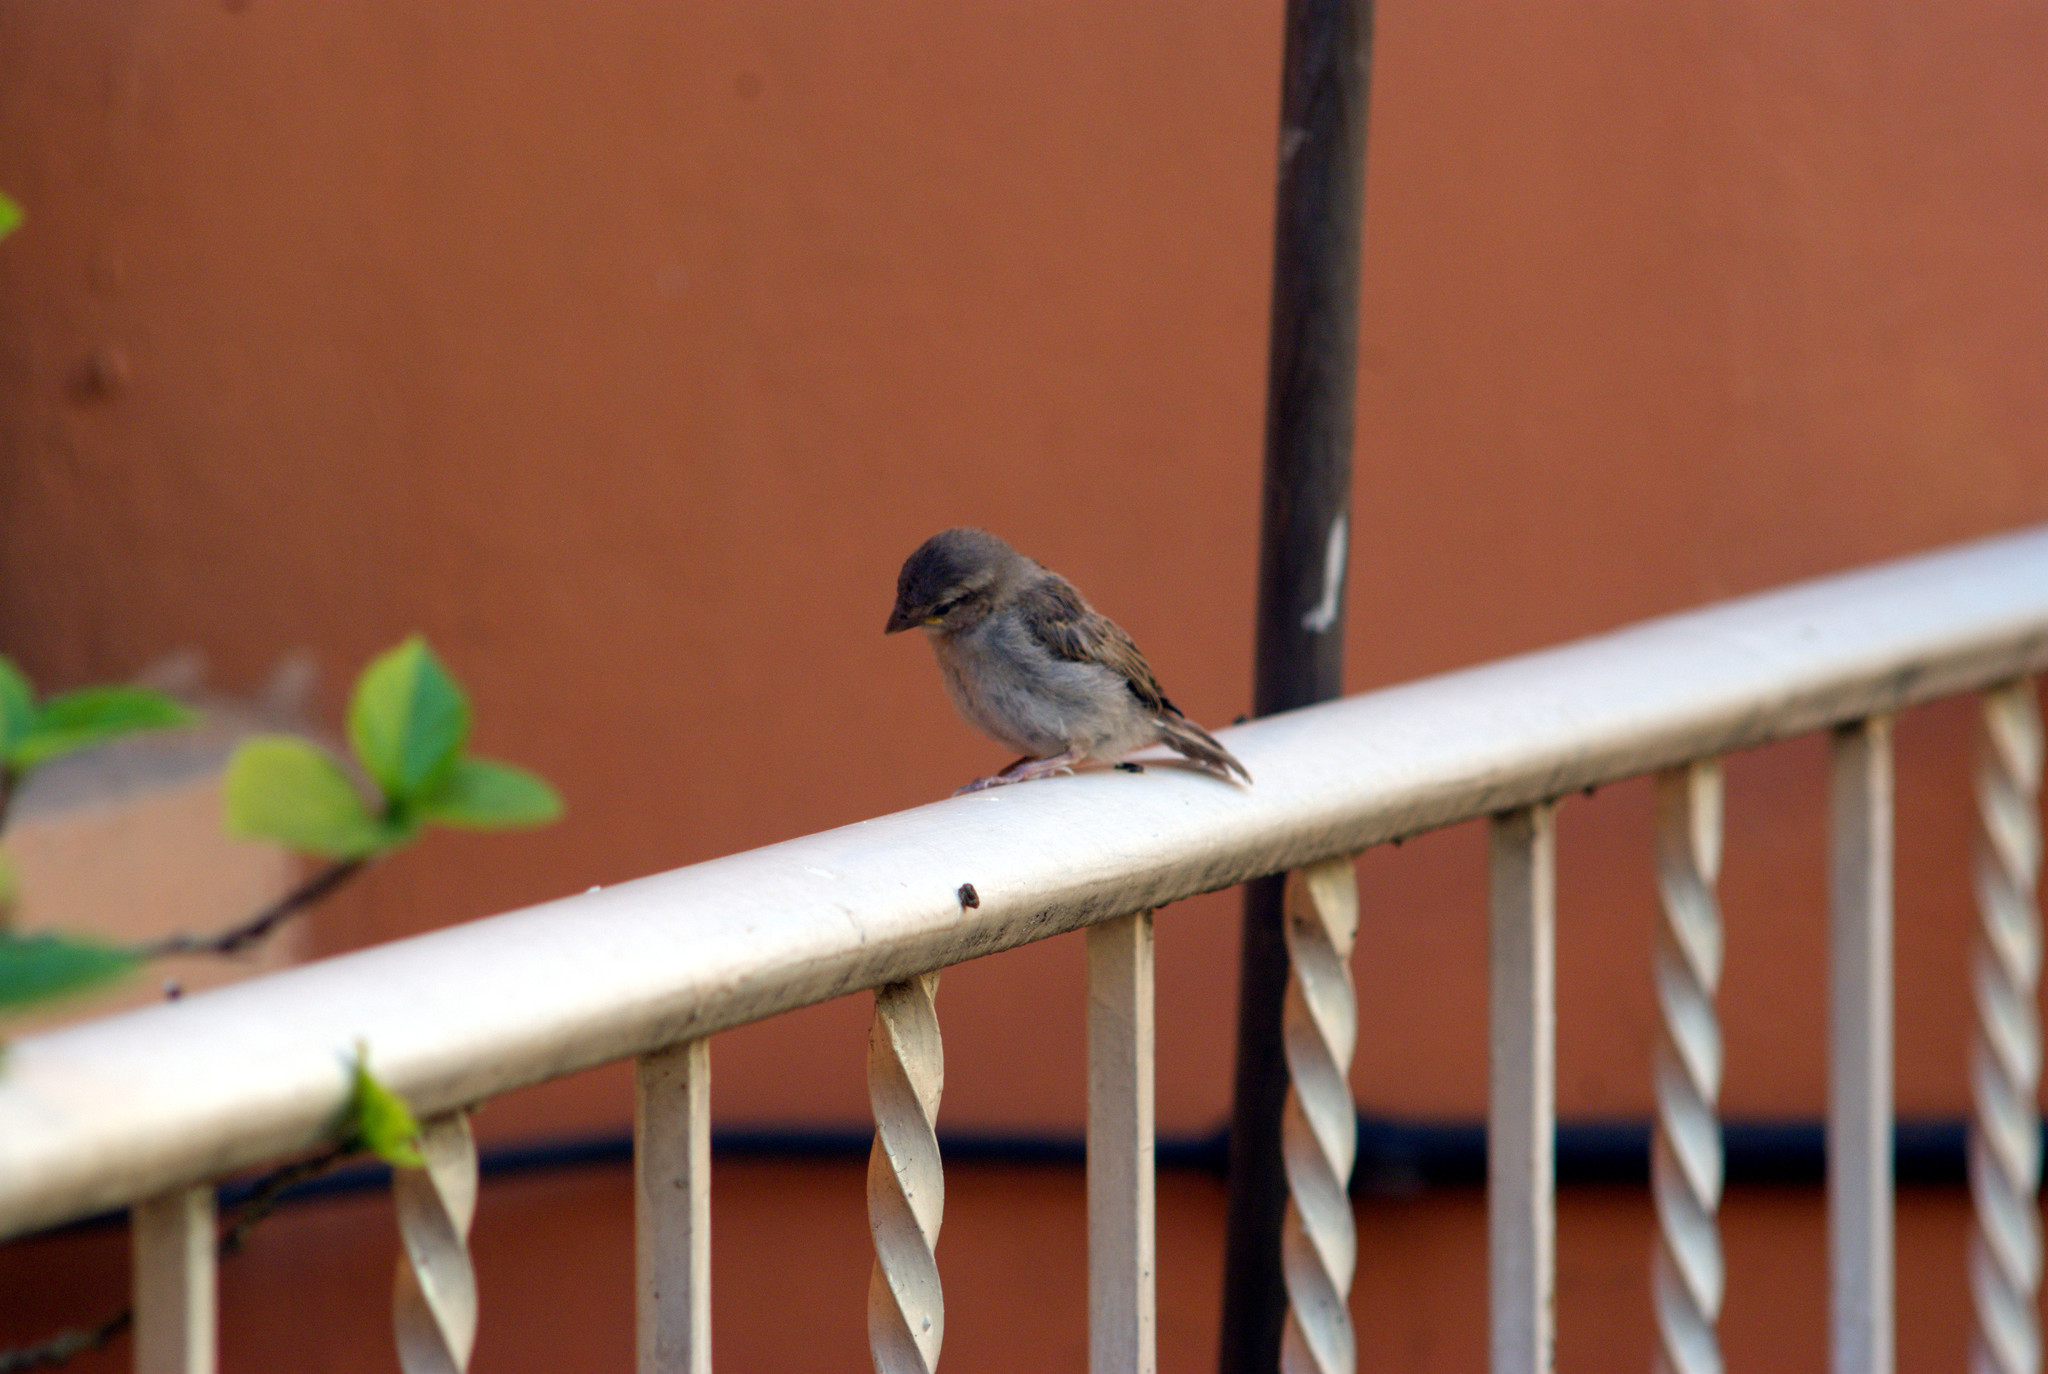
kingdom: Animalia
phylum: Chordata
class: Aves
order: Passeriformes
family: Passeridae
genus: Passer
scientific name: Passer domesticus
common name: House sparrow
